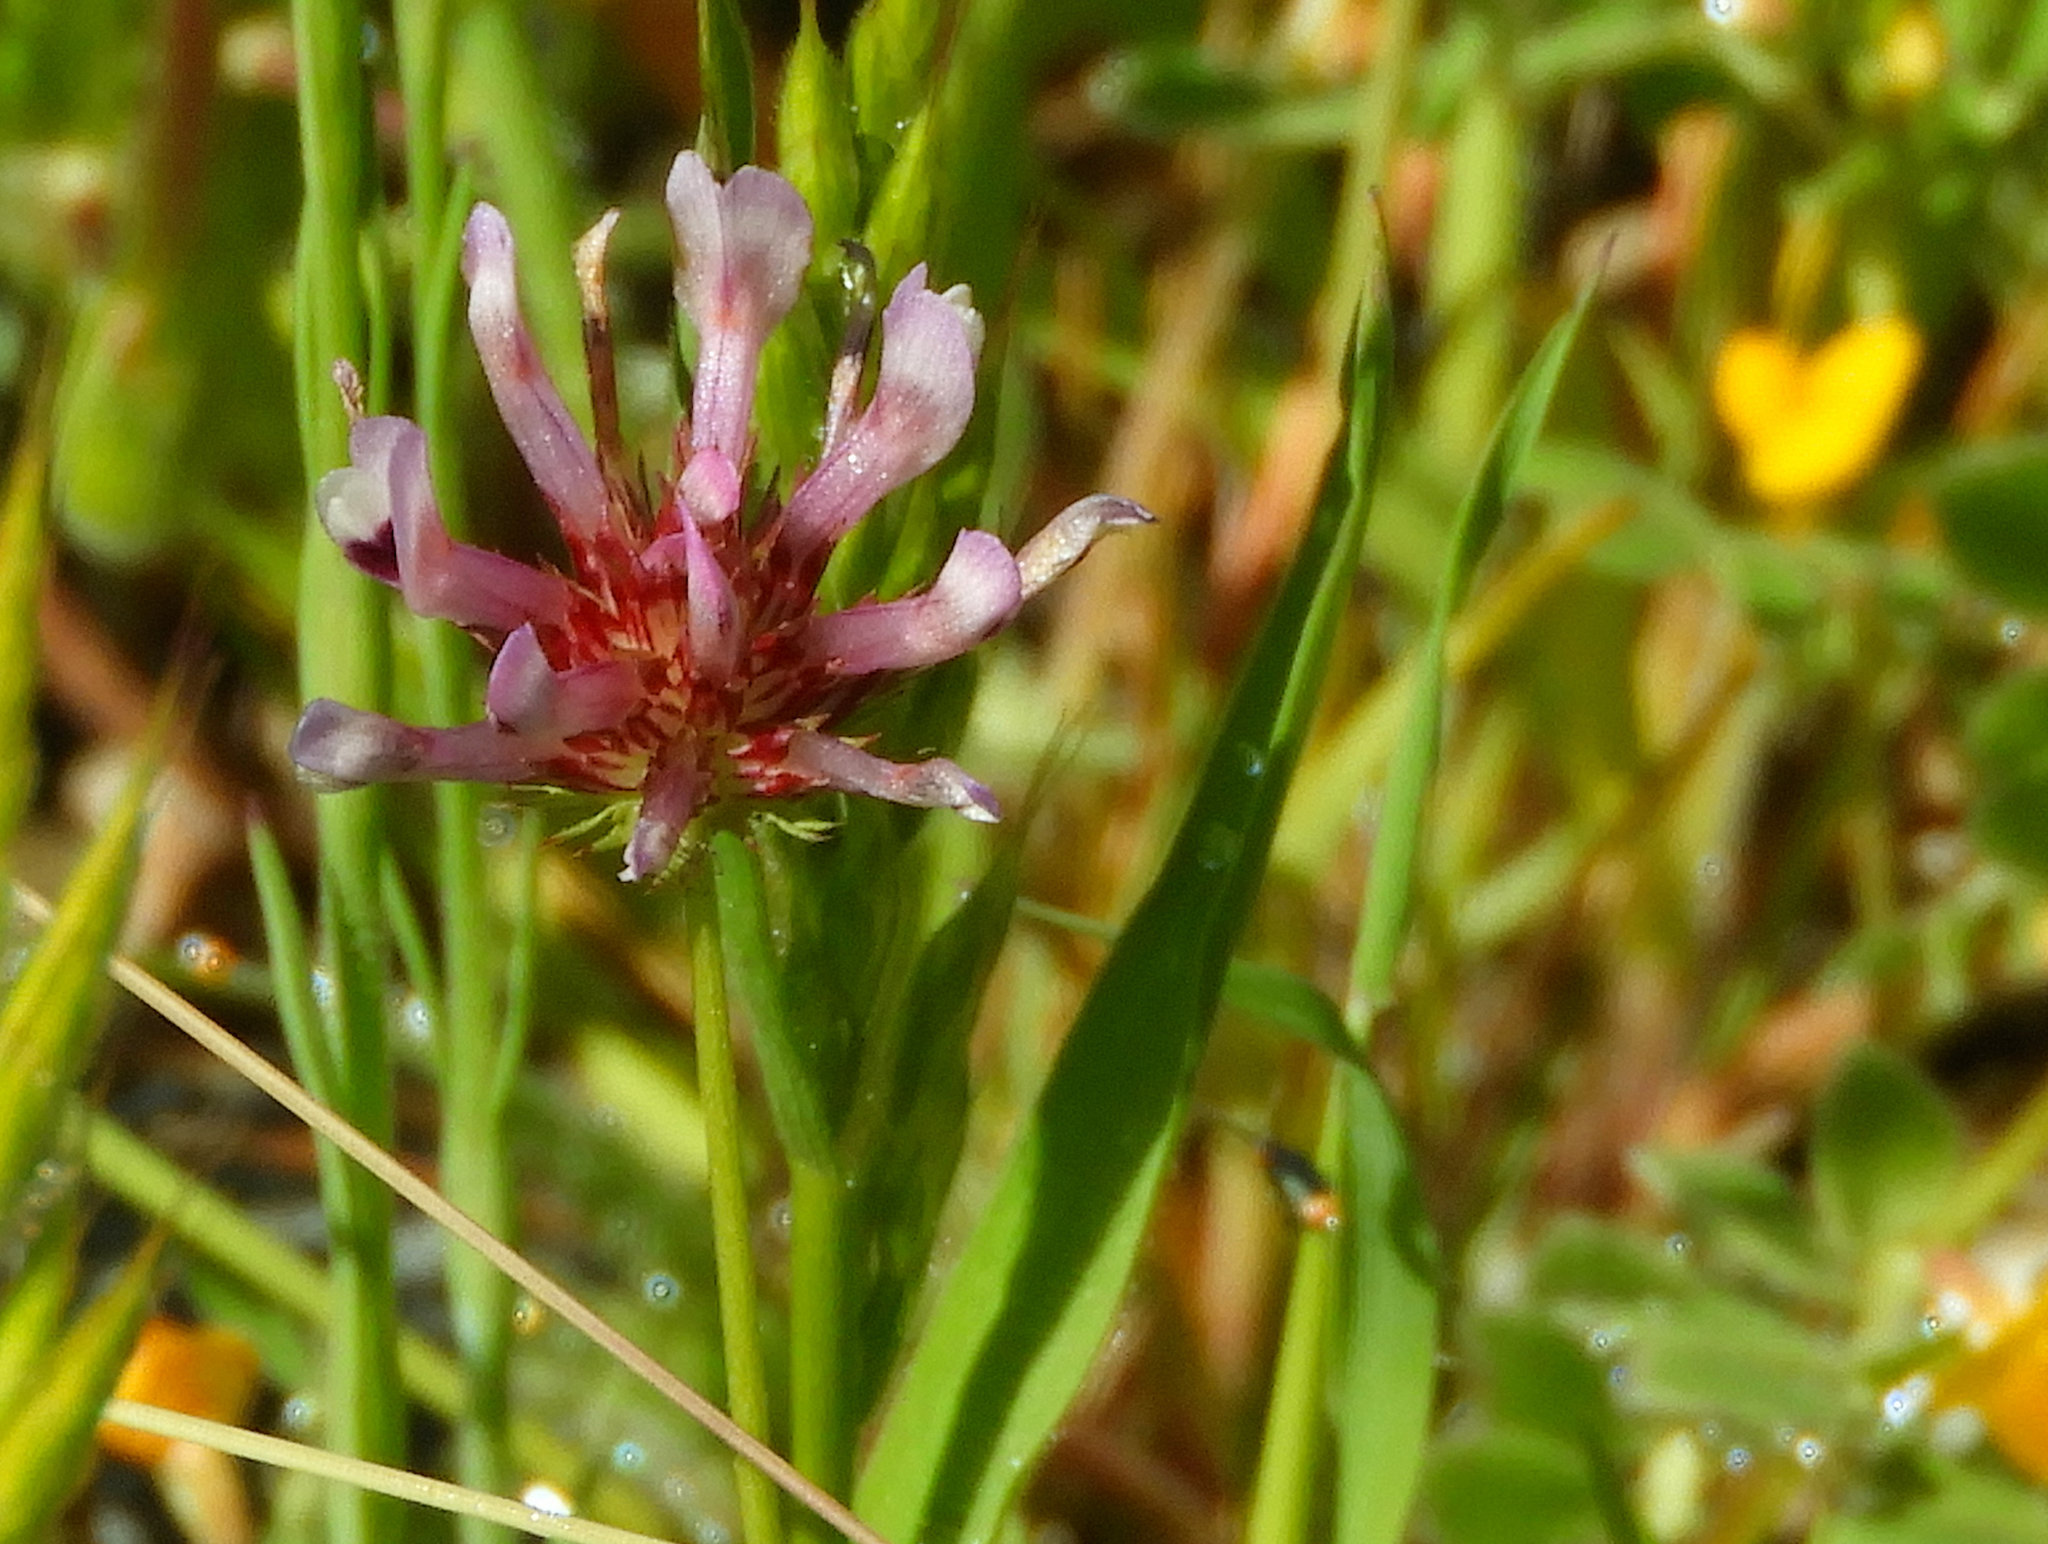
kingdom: Plantae
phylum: Tracheophyta
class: Magnoliopsida
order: Fabales
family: Fabaceae
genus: Trifolium
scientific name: Trifolium willdenovii
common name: Tomcat clover
